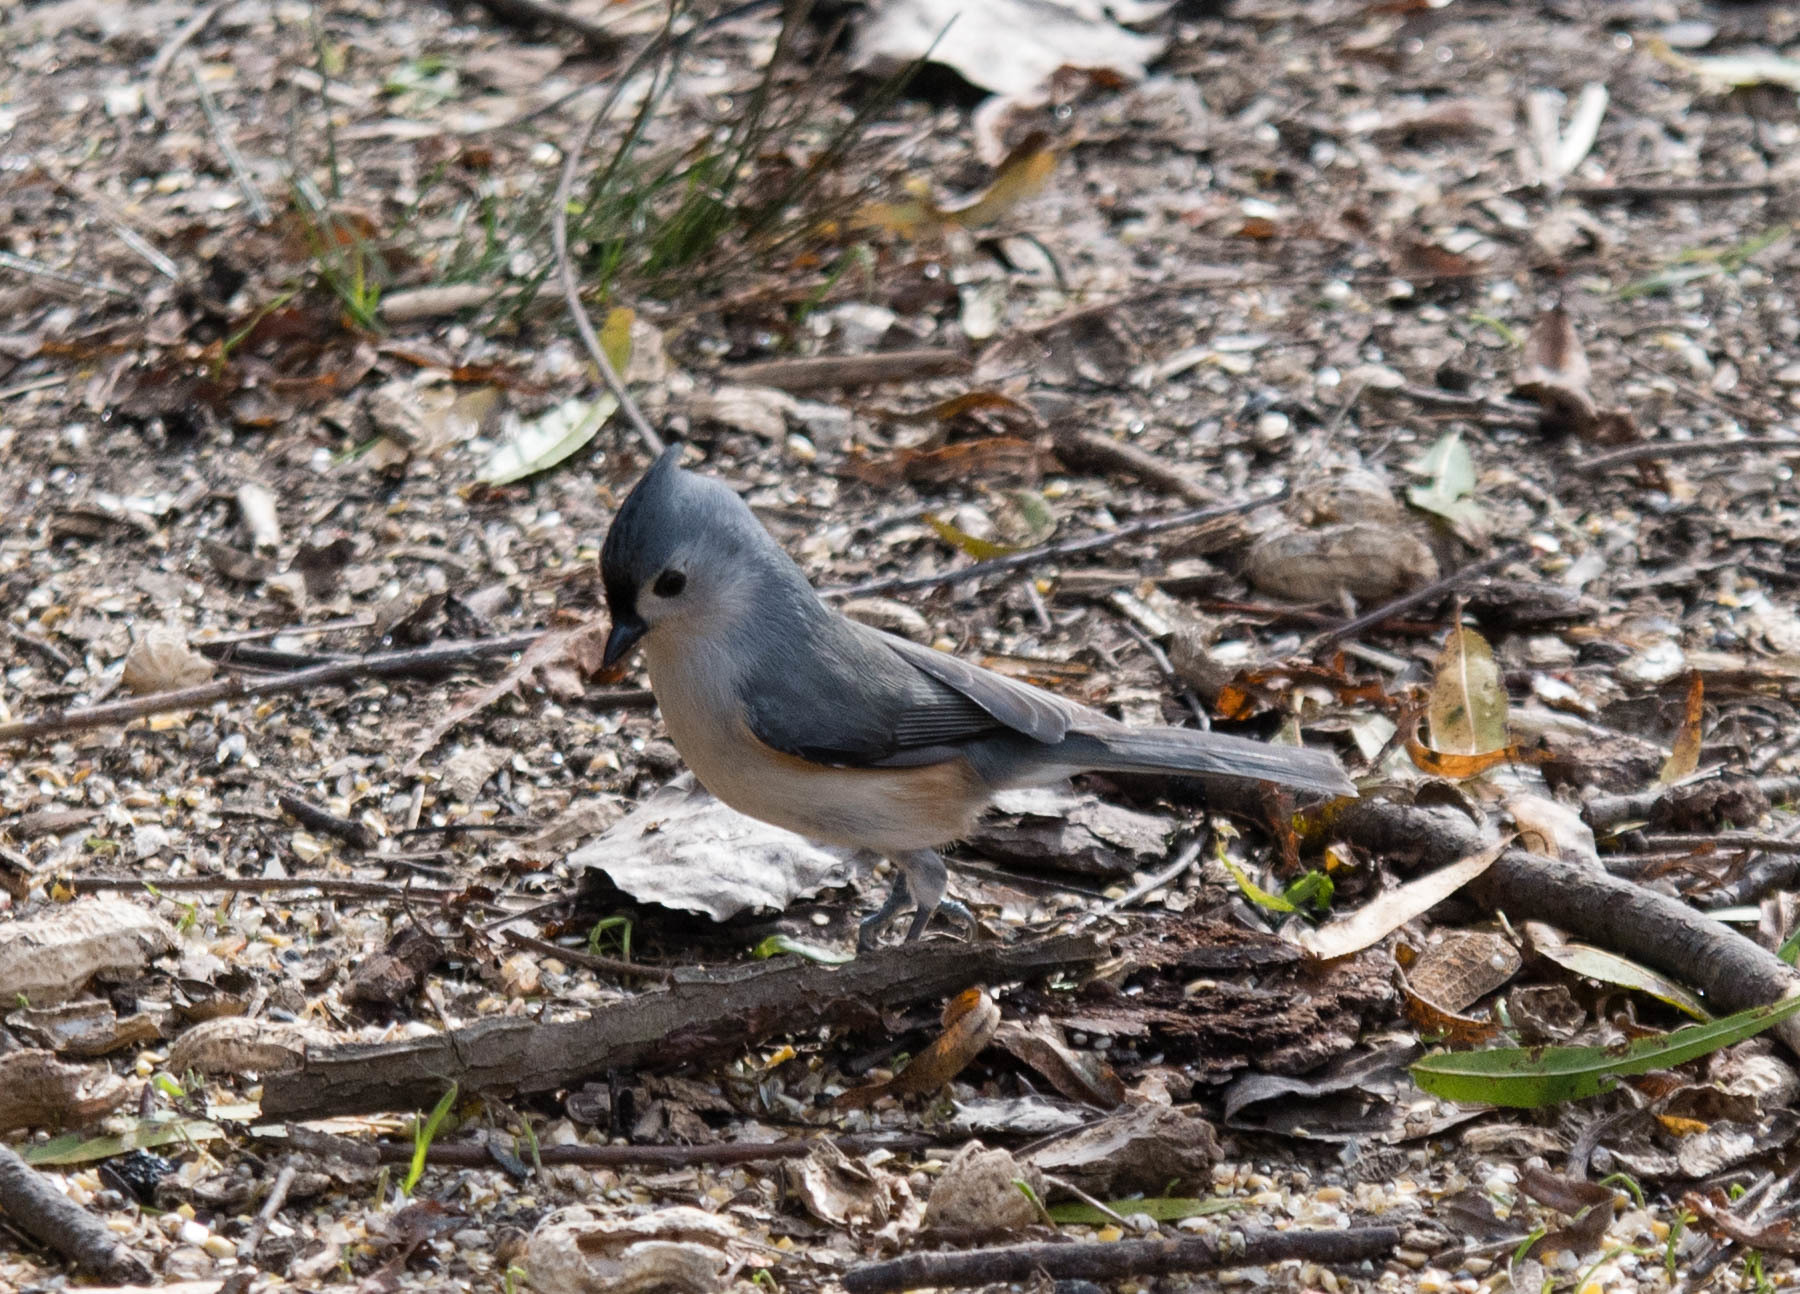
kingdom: Animalia
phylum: Chordata
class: Aves
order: Passeriformes
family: Paridae
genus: Baeolophus
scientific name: Baeolophus bicolor
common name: Tufted titmouse
